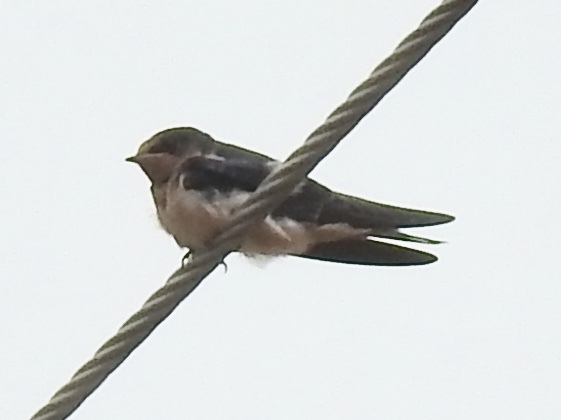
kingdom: Animalia
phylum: Chordata
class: Aves
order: Passeriformes
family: Hirundinidae
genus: Hirundo
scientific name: Hirundo rustica
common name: Barn swallow
